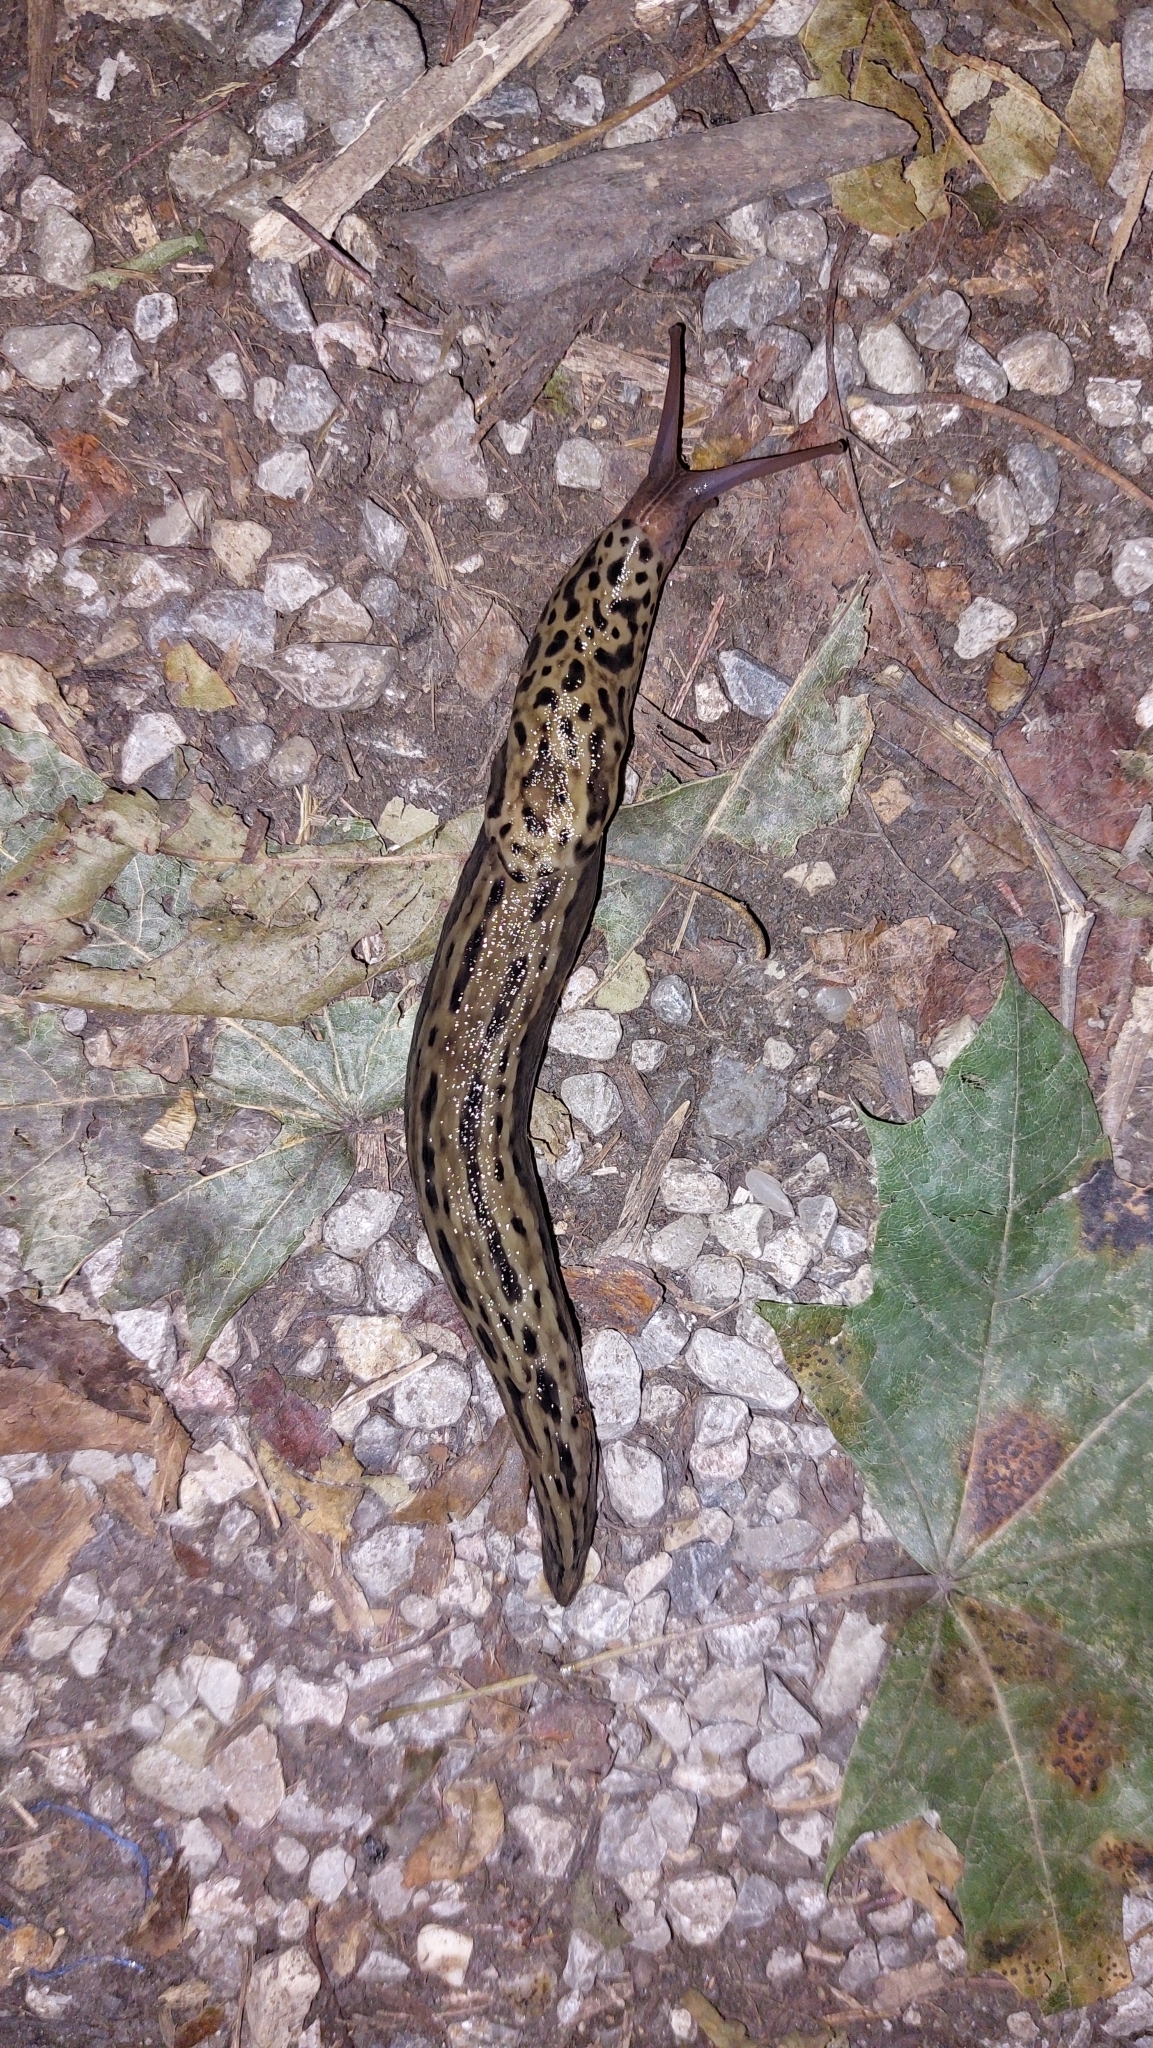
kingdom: Animalia
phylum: Mollusca
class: Gastropoda
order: Stylommatophora
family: Limacidae
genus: Limax
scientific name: Limax maximus
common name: Great grey slug
